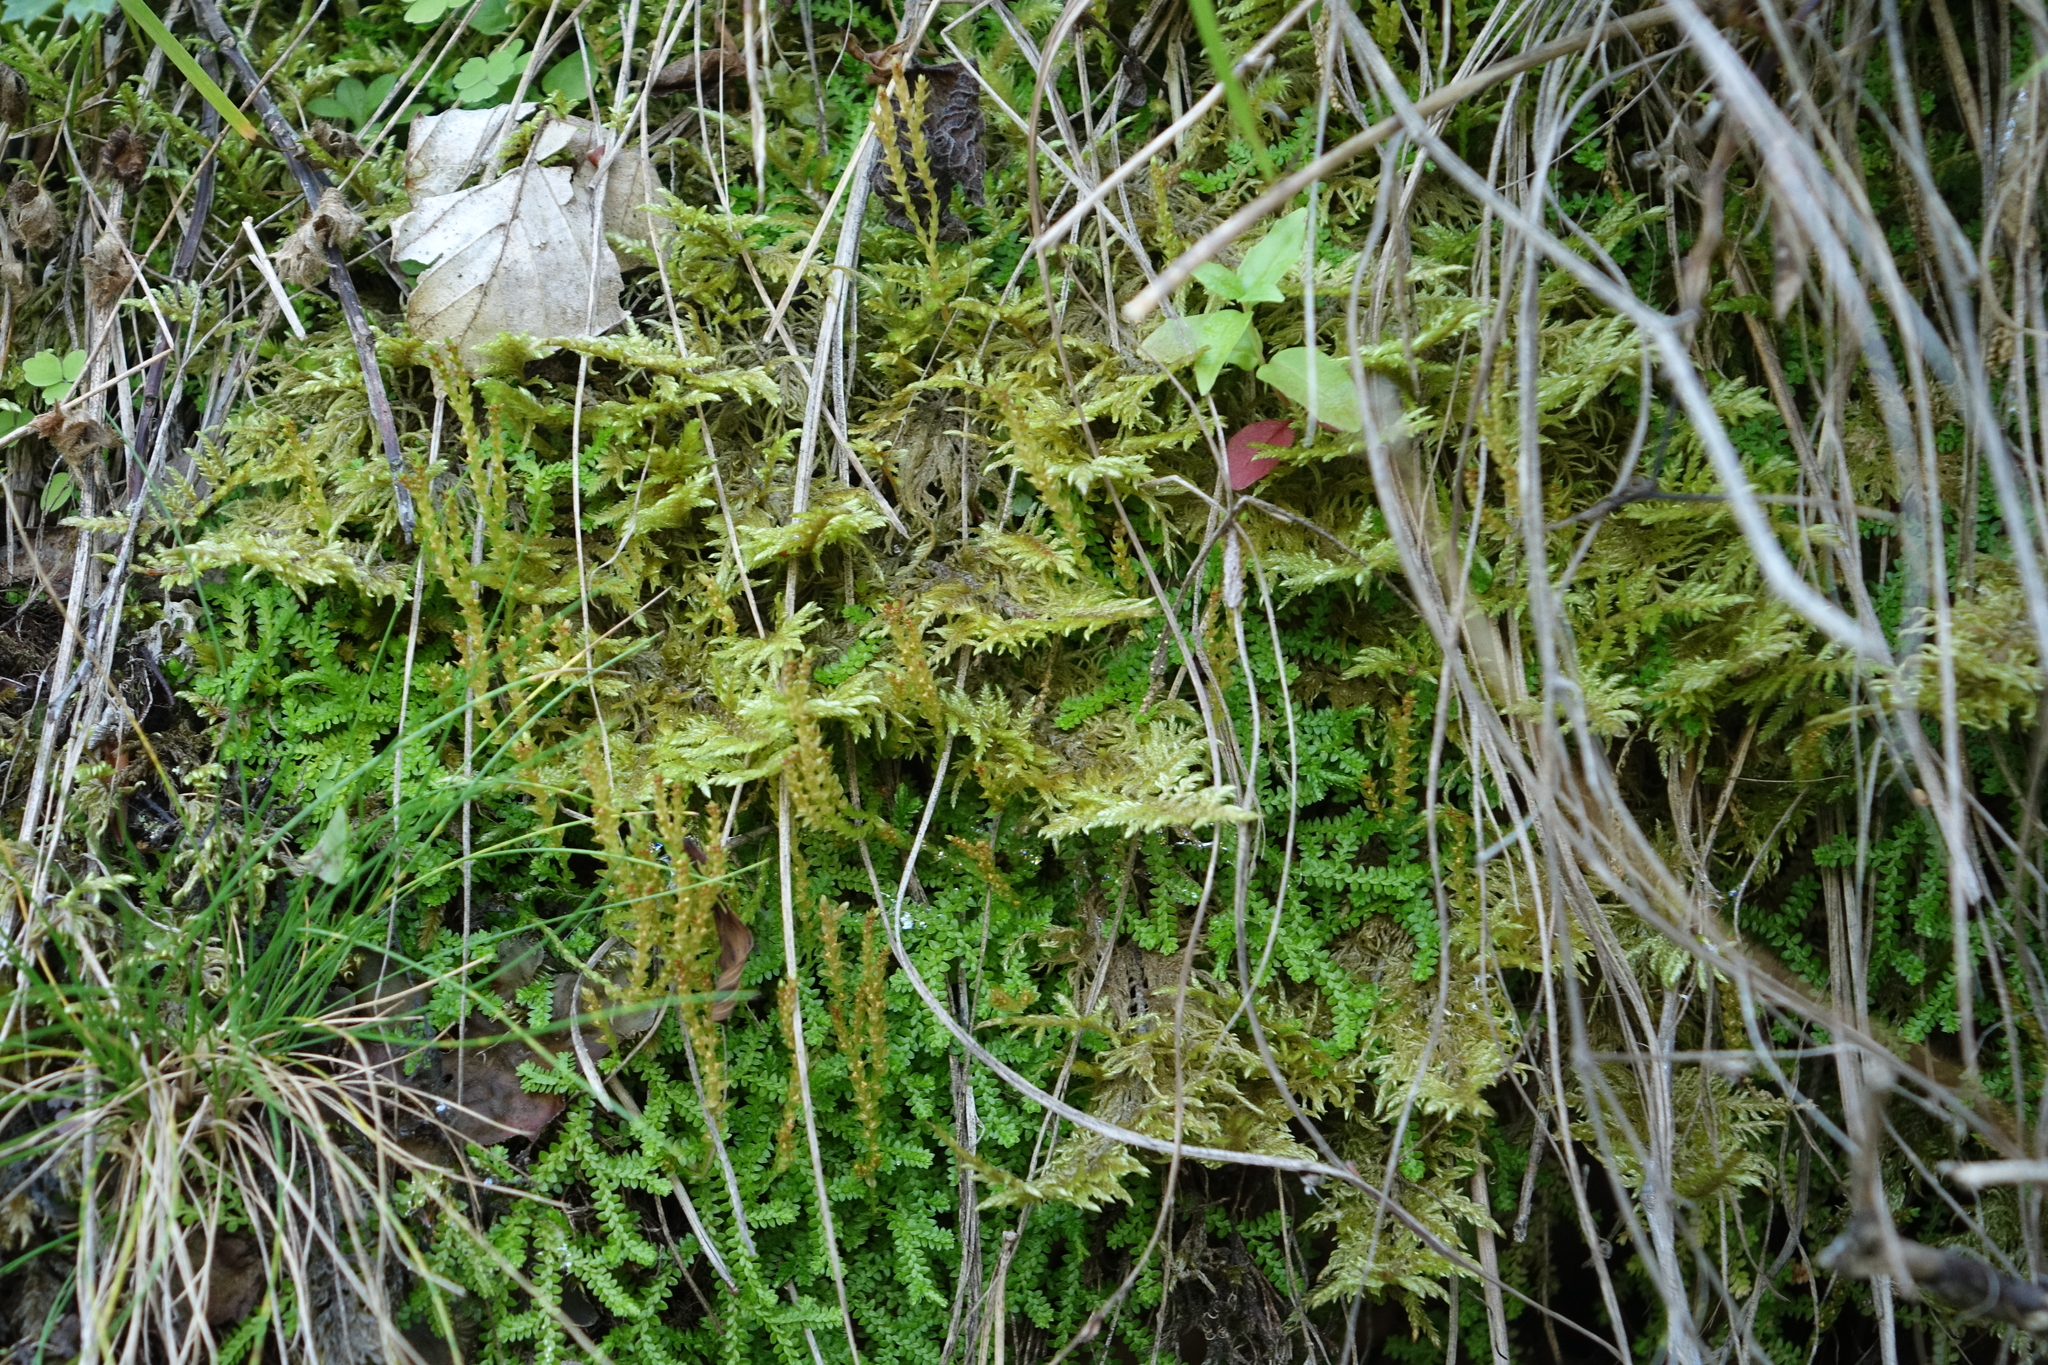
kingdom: Plantae
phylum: Bryophyta
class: Bryopsida
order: Hypnales
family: Hylocomiaceae
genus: Hylocomium
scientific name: Hylocomium splendens
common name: Stairstep moss
